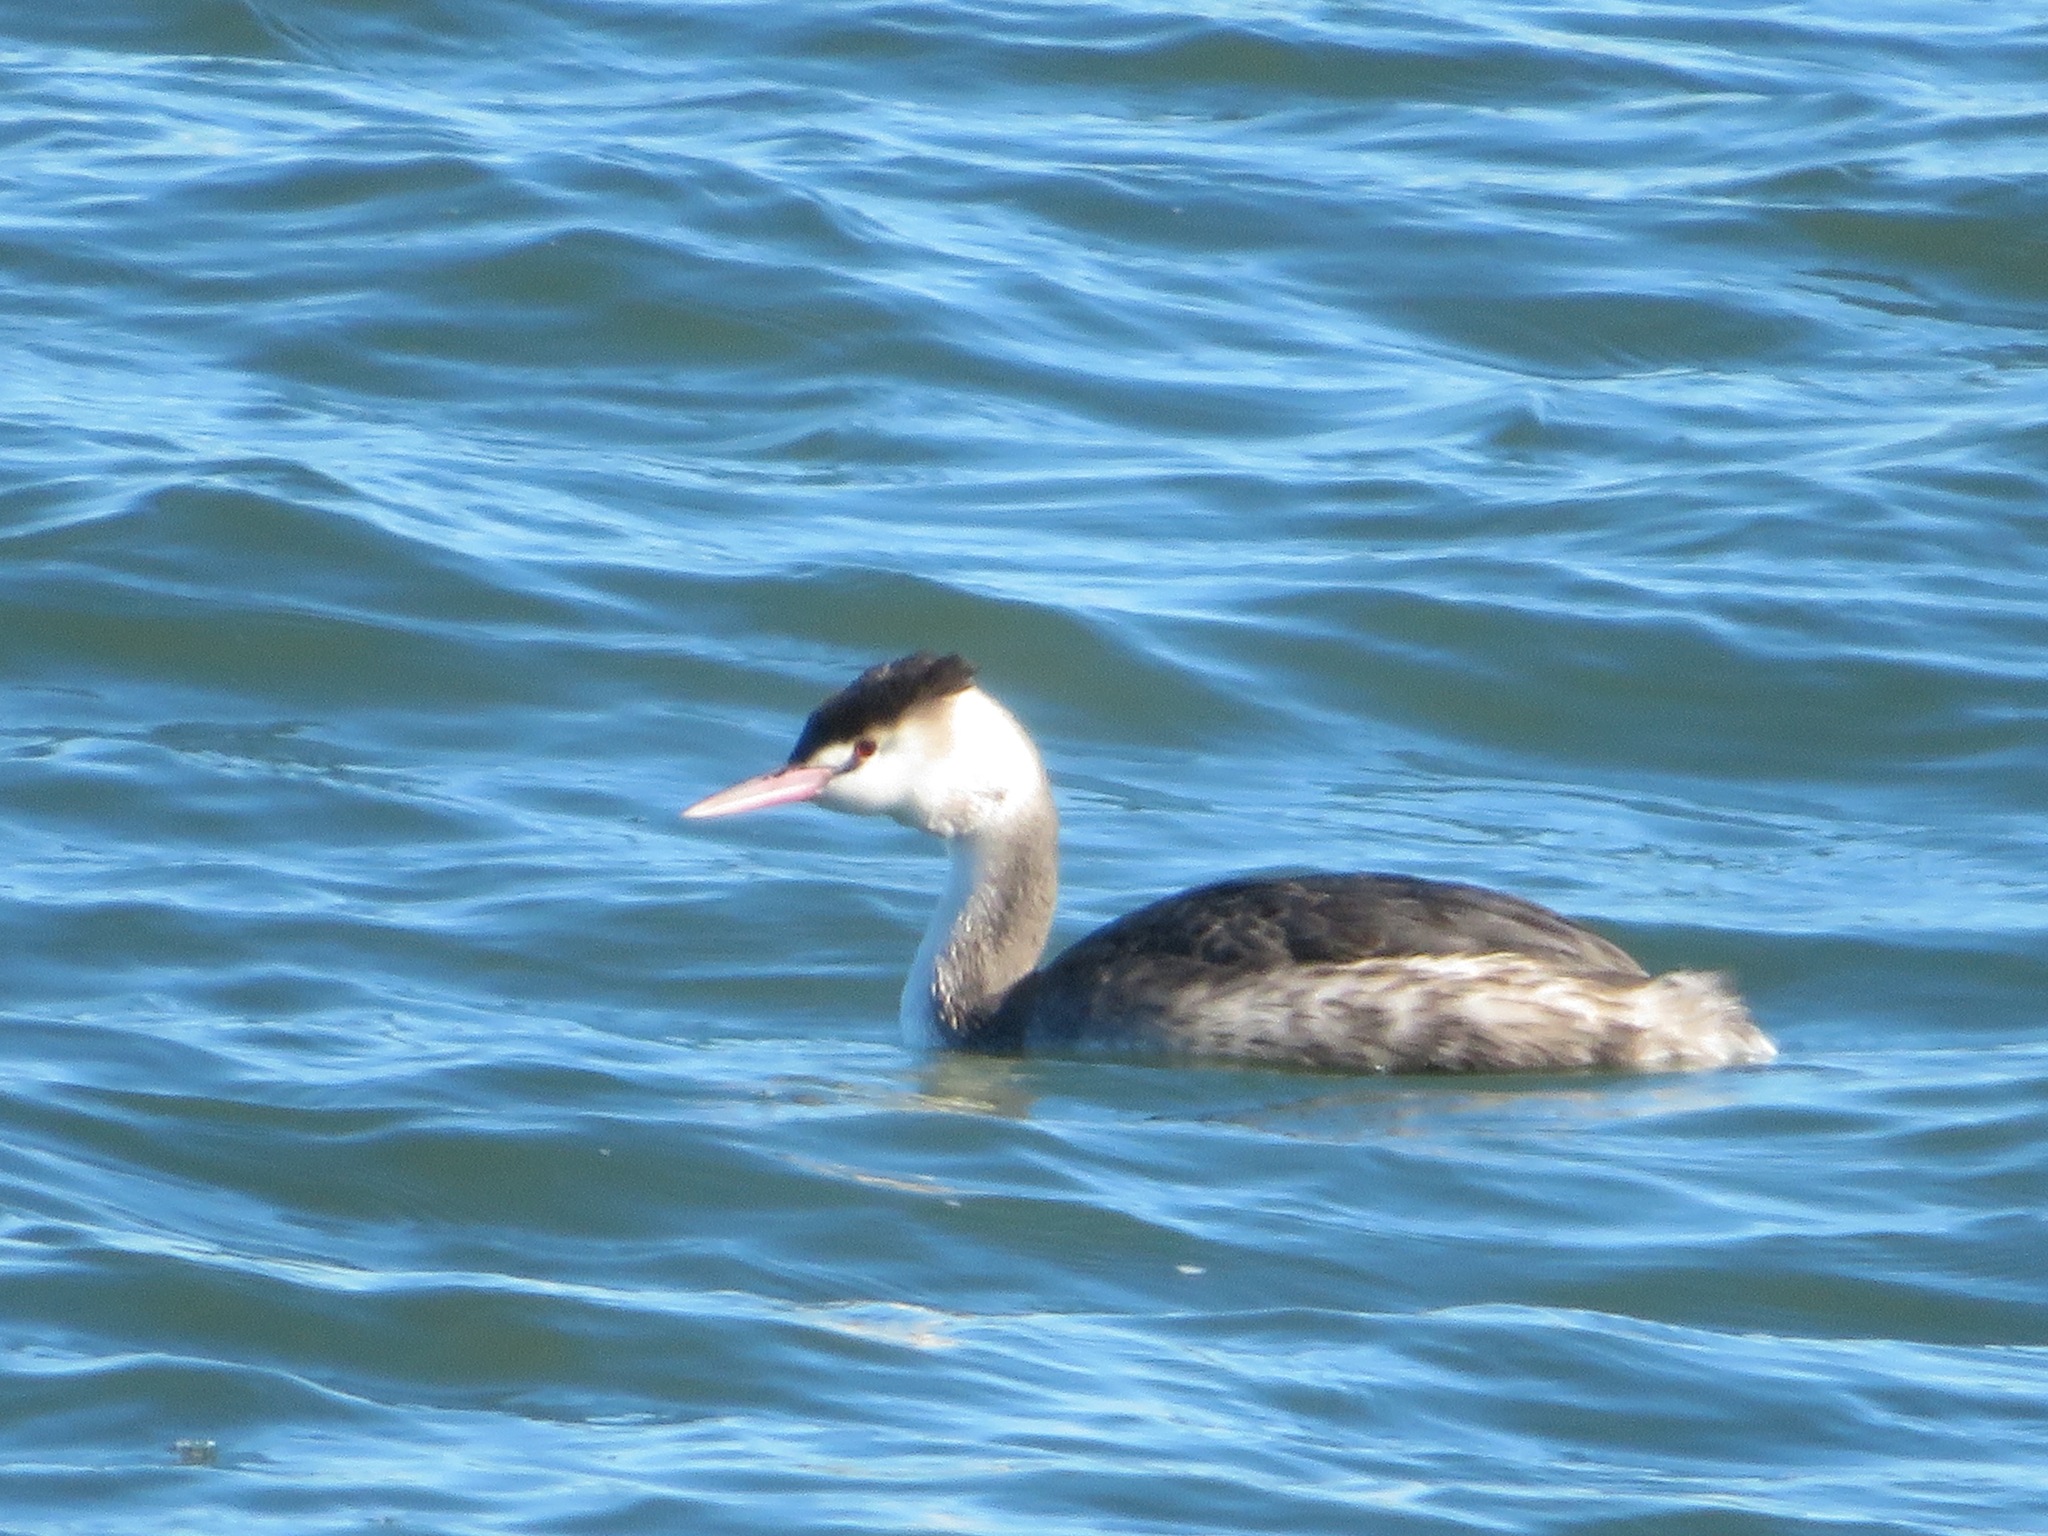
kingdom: Animalia
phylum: Chordata
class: Aves
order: Podicipediformes
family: Podicipedidae
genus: Podiceps
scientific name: Podiceps cristatus
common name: Great crested grebe
